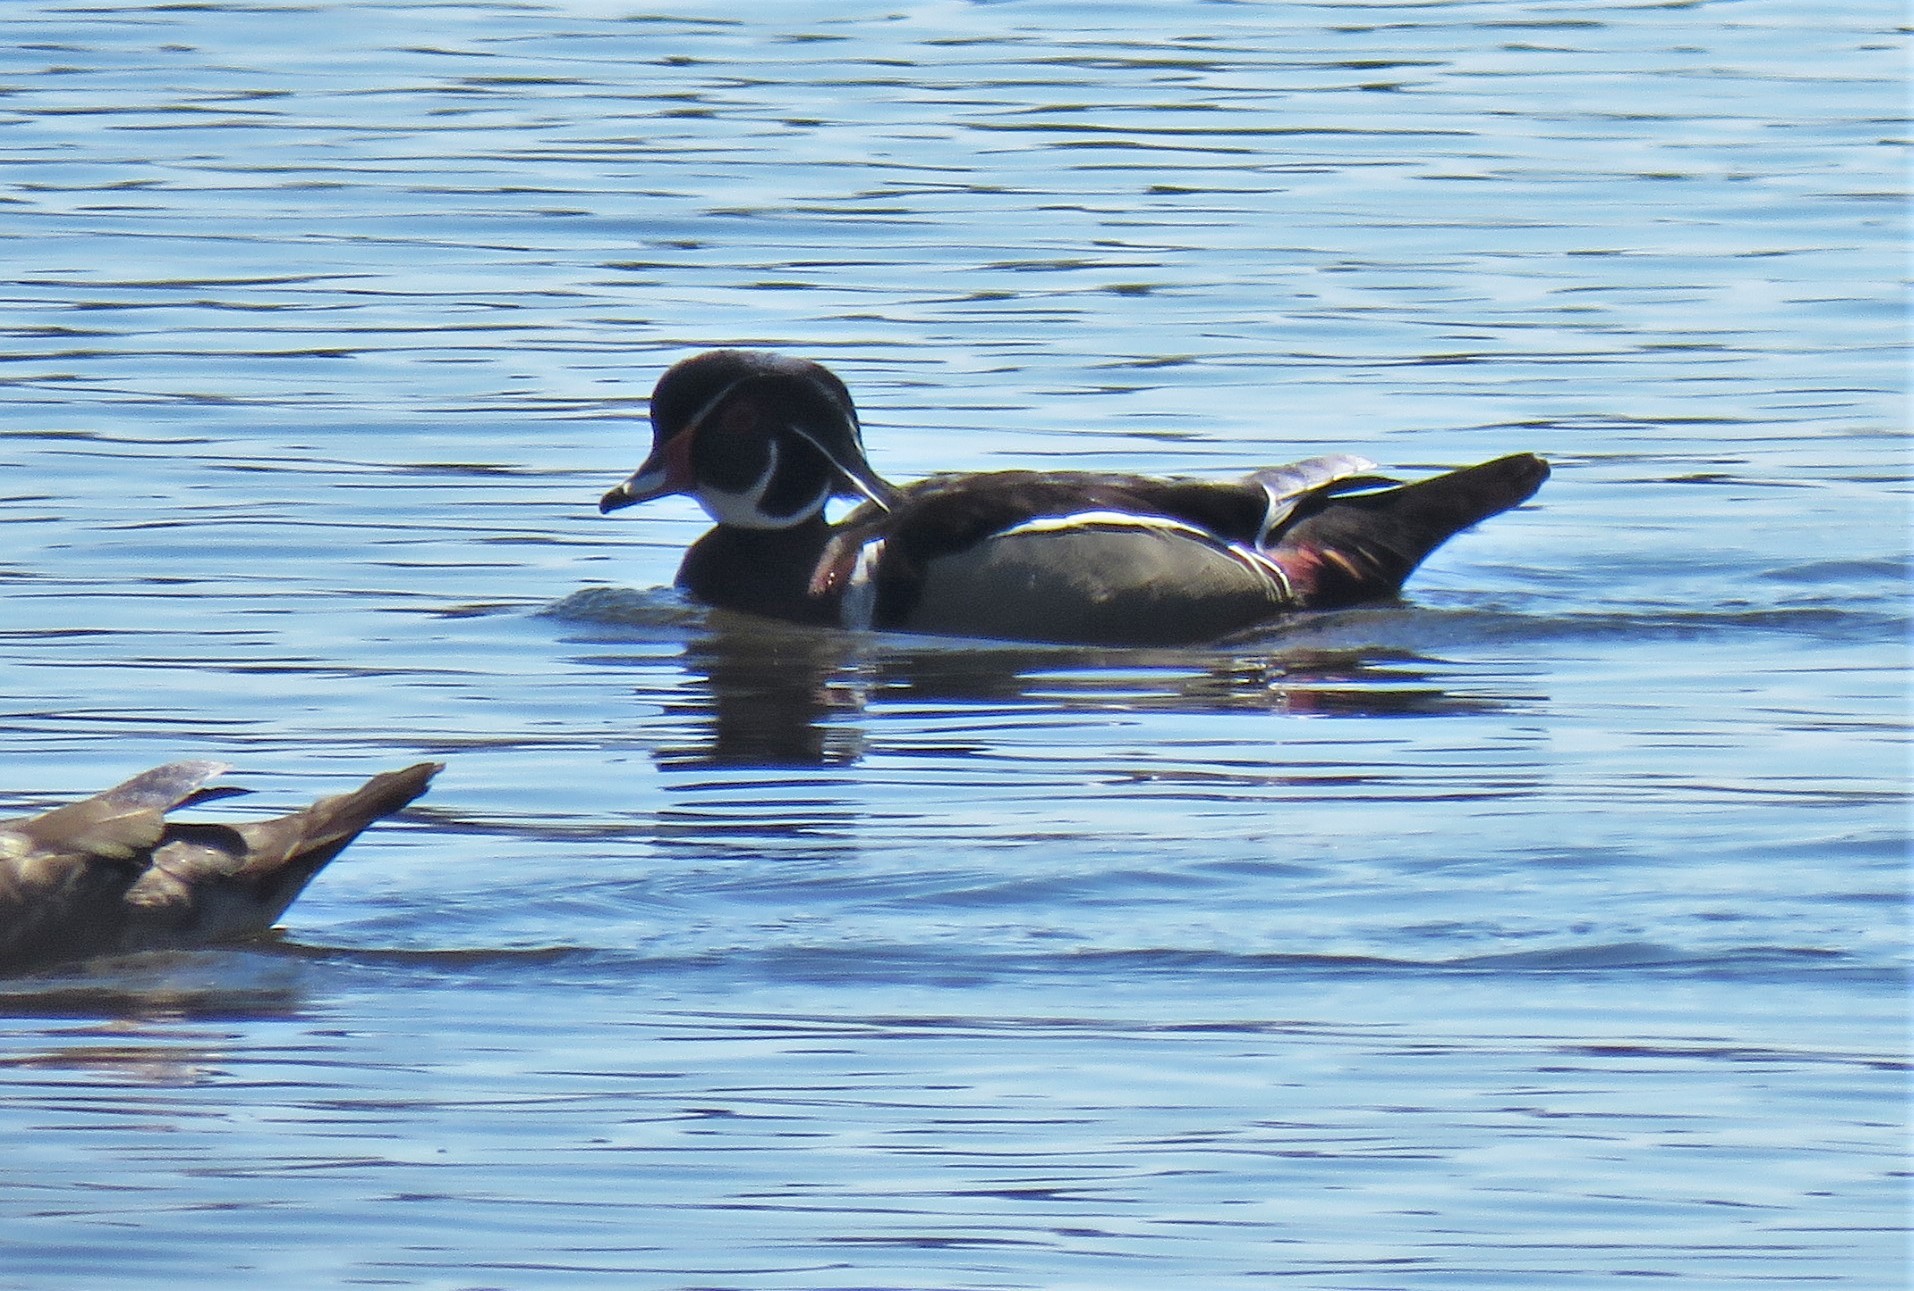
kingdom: Animalia
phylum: Chordata
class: Aves
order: Anseriformes
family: Anatidae
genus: Aix
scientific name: Aix sponsa
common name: Wood duck
